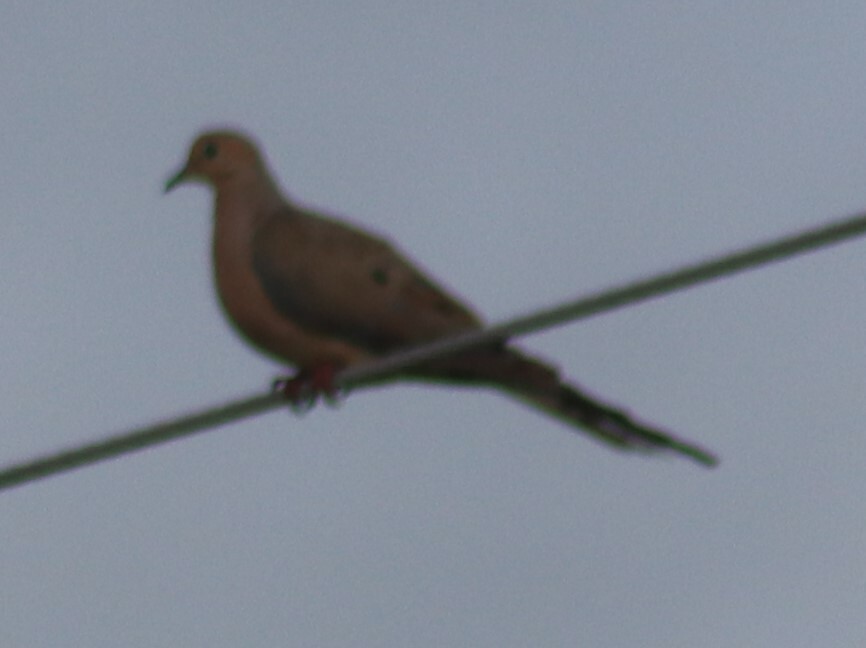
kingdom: Animalia
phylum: Chordata
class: Aves
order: Columbiformes
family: Columbidae
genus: Zenaida
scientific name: Zenaida macroura
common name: Mourning dove
